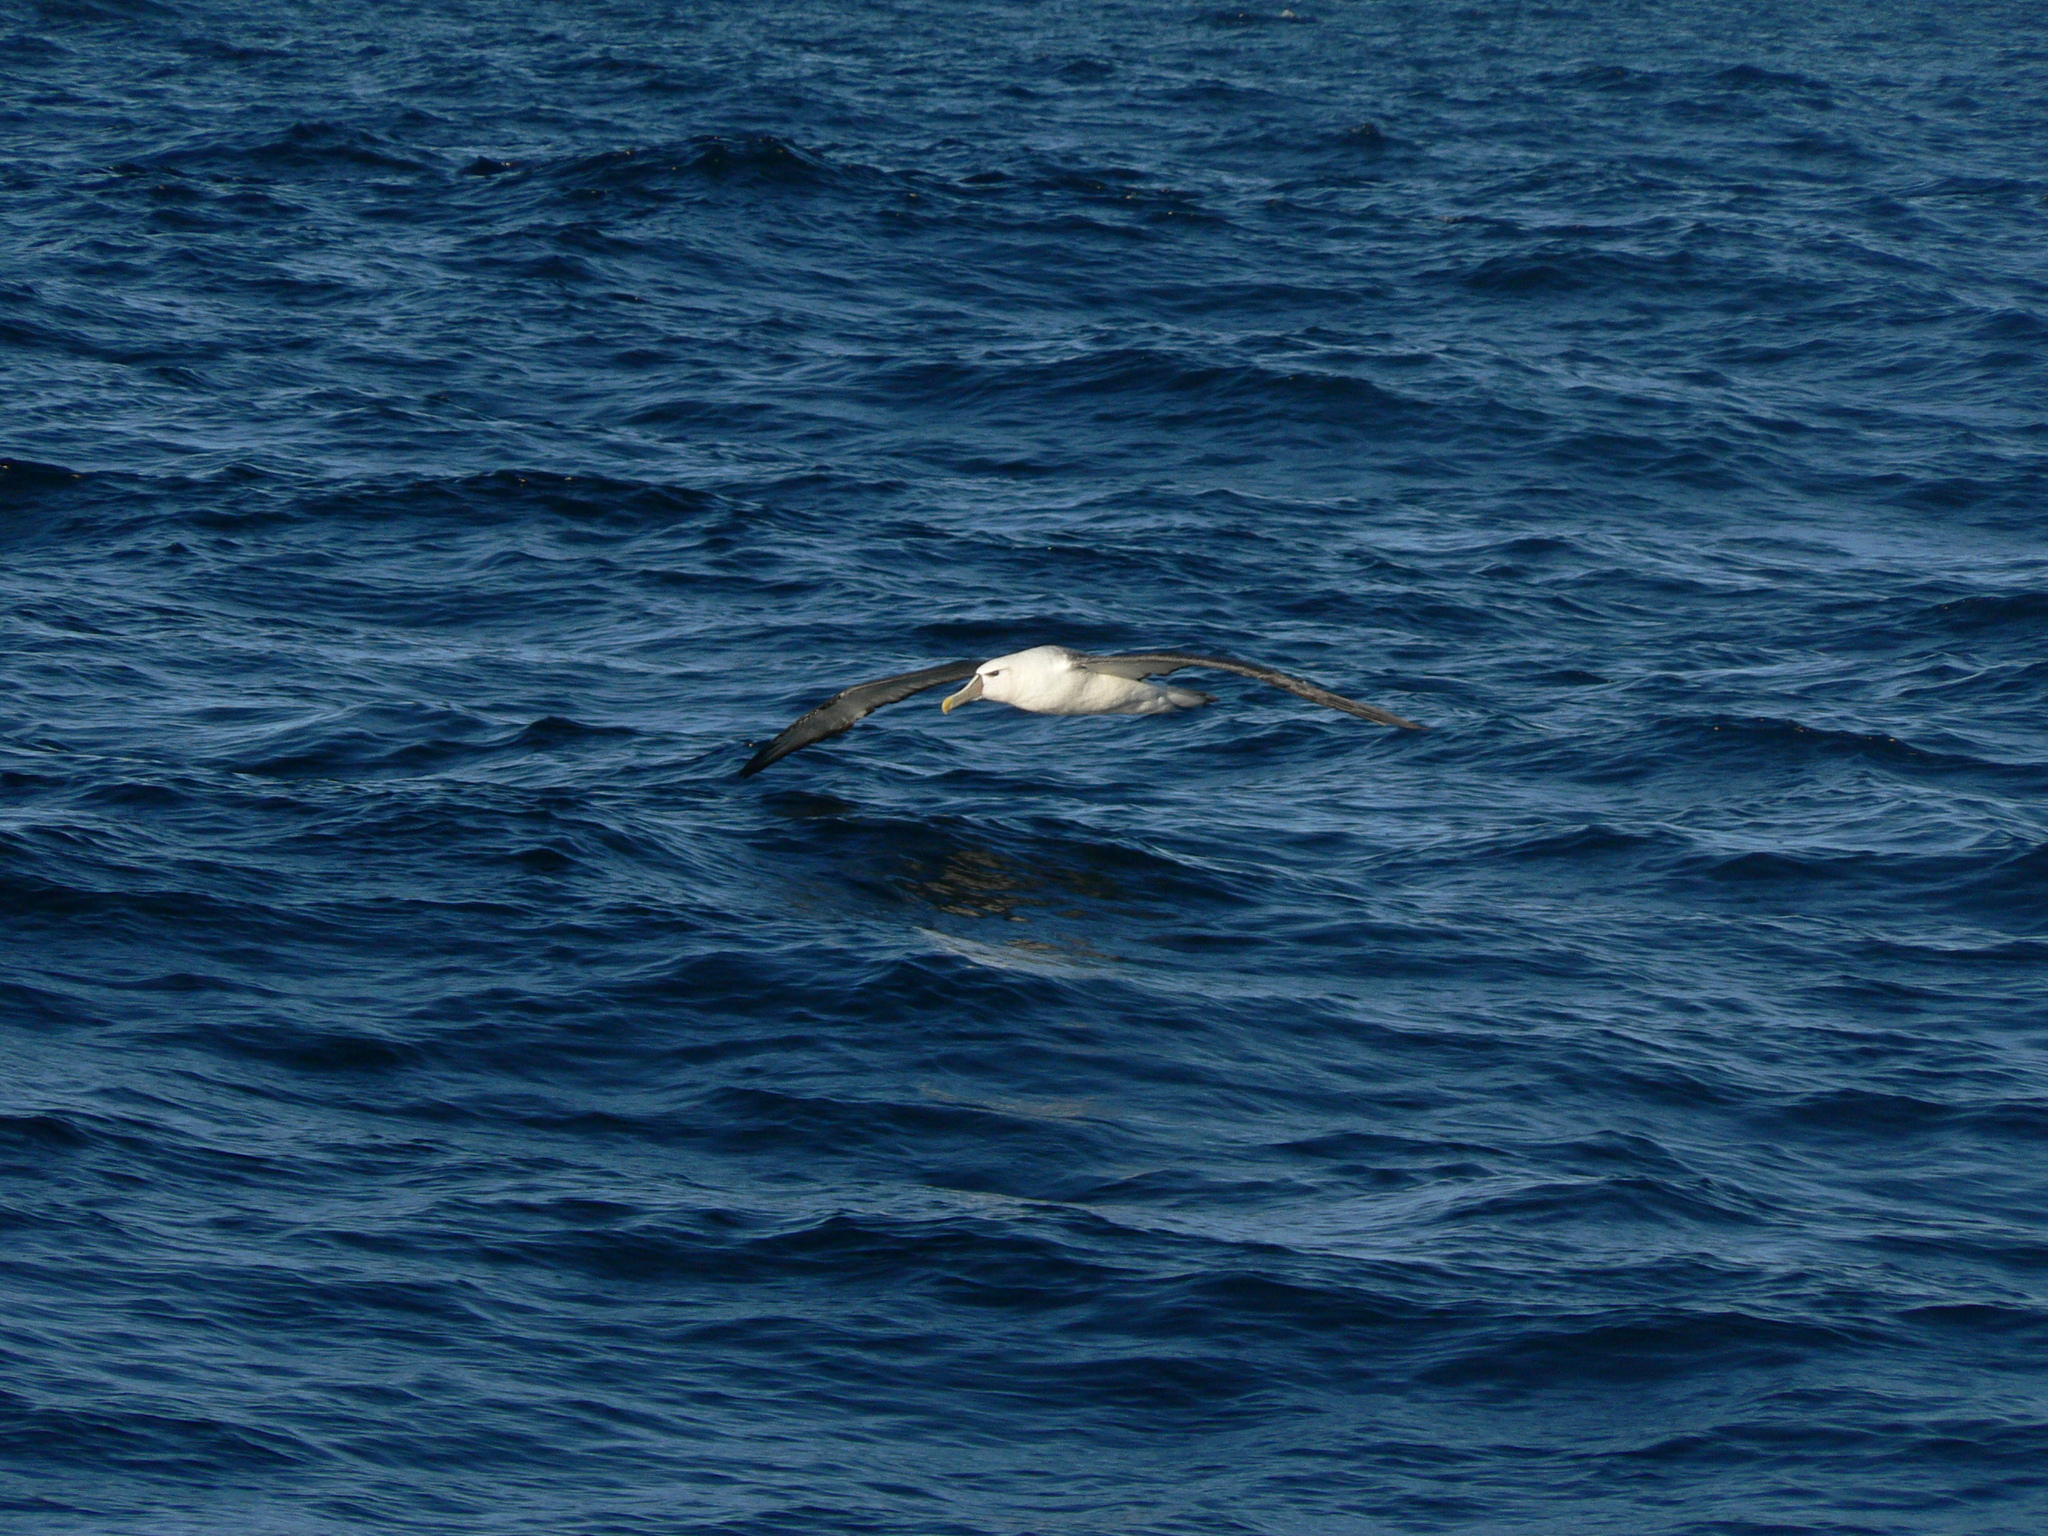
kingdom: Animalia
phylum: Chordata
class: Aves
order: Procellariiformes
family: Diomedeidae
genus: Thalassarche
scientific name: Thalassarche cauta
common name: Shy albatross
